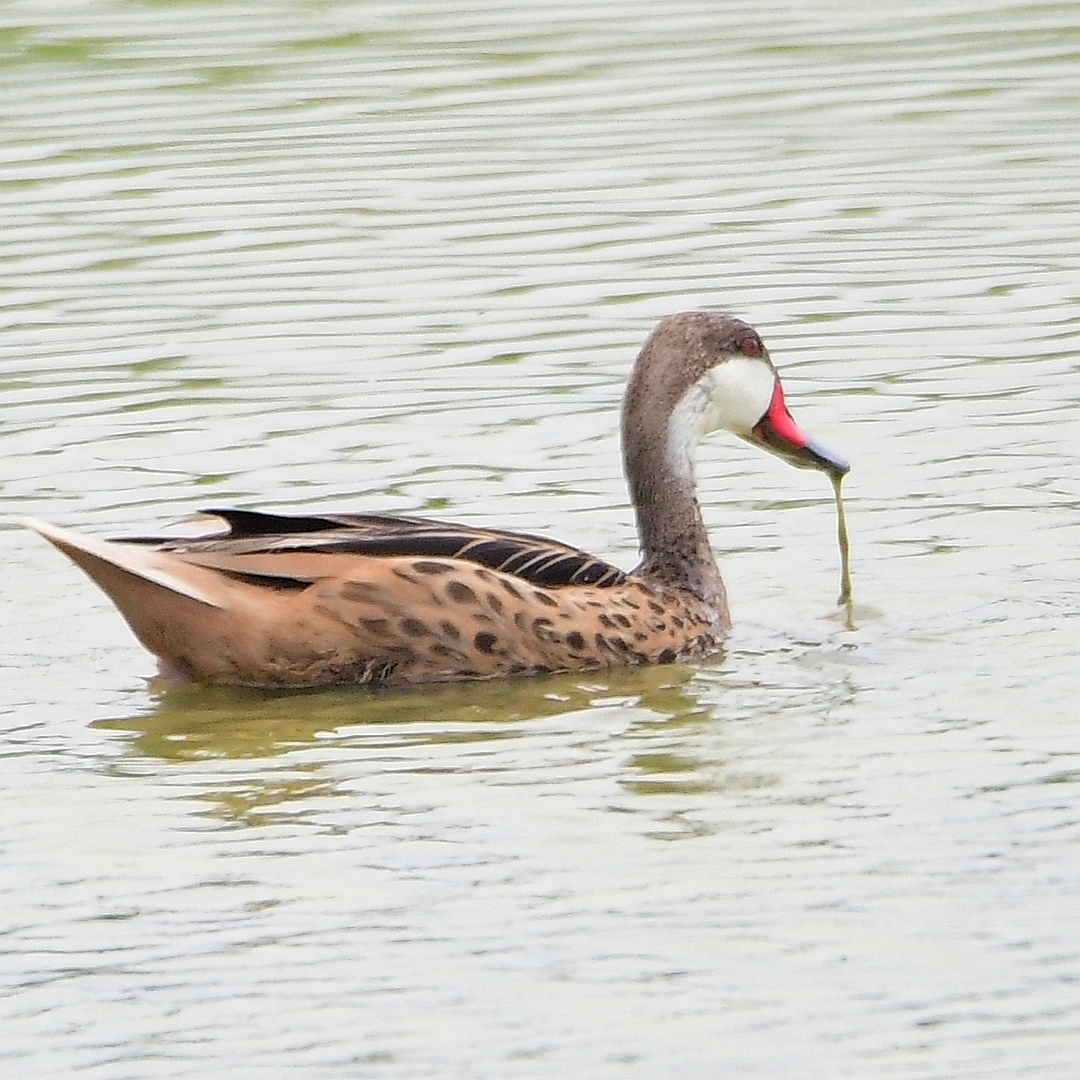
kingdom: Animalia
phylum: Chordata
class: Aves
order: Anseriformes
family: Anatidae
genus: Anas
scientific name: Anas bahamensis
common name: White-cheeked pintail
